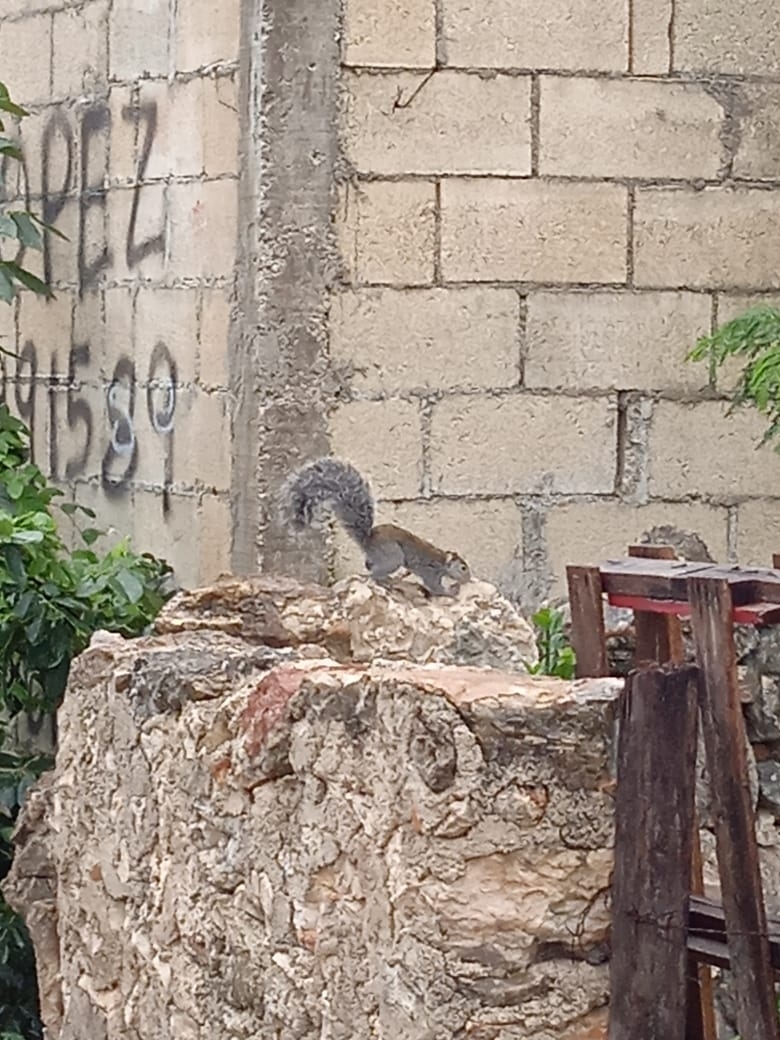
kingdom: Animalia
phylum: Chordata
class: Mammalia
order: Rodentia
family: Sciuridae
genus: Sciurus
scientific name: Sciurus yucatanensis
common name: Yucatan squirrel
